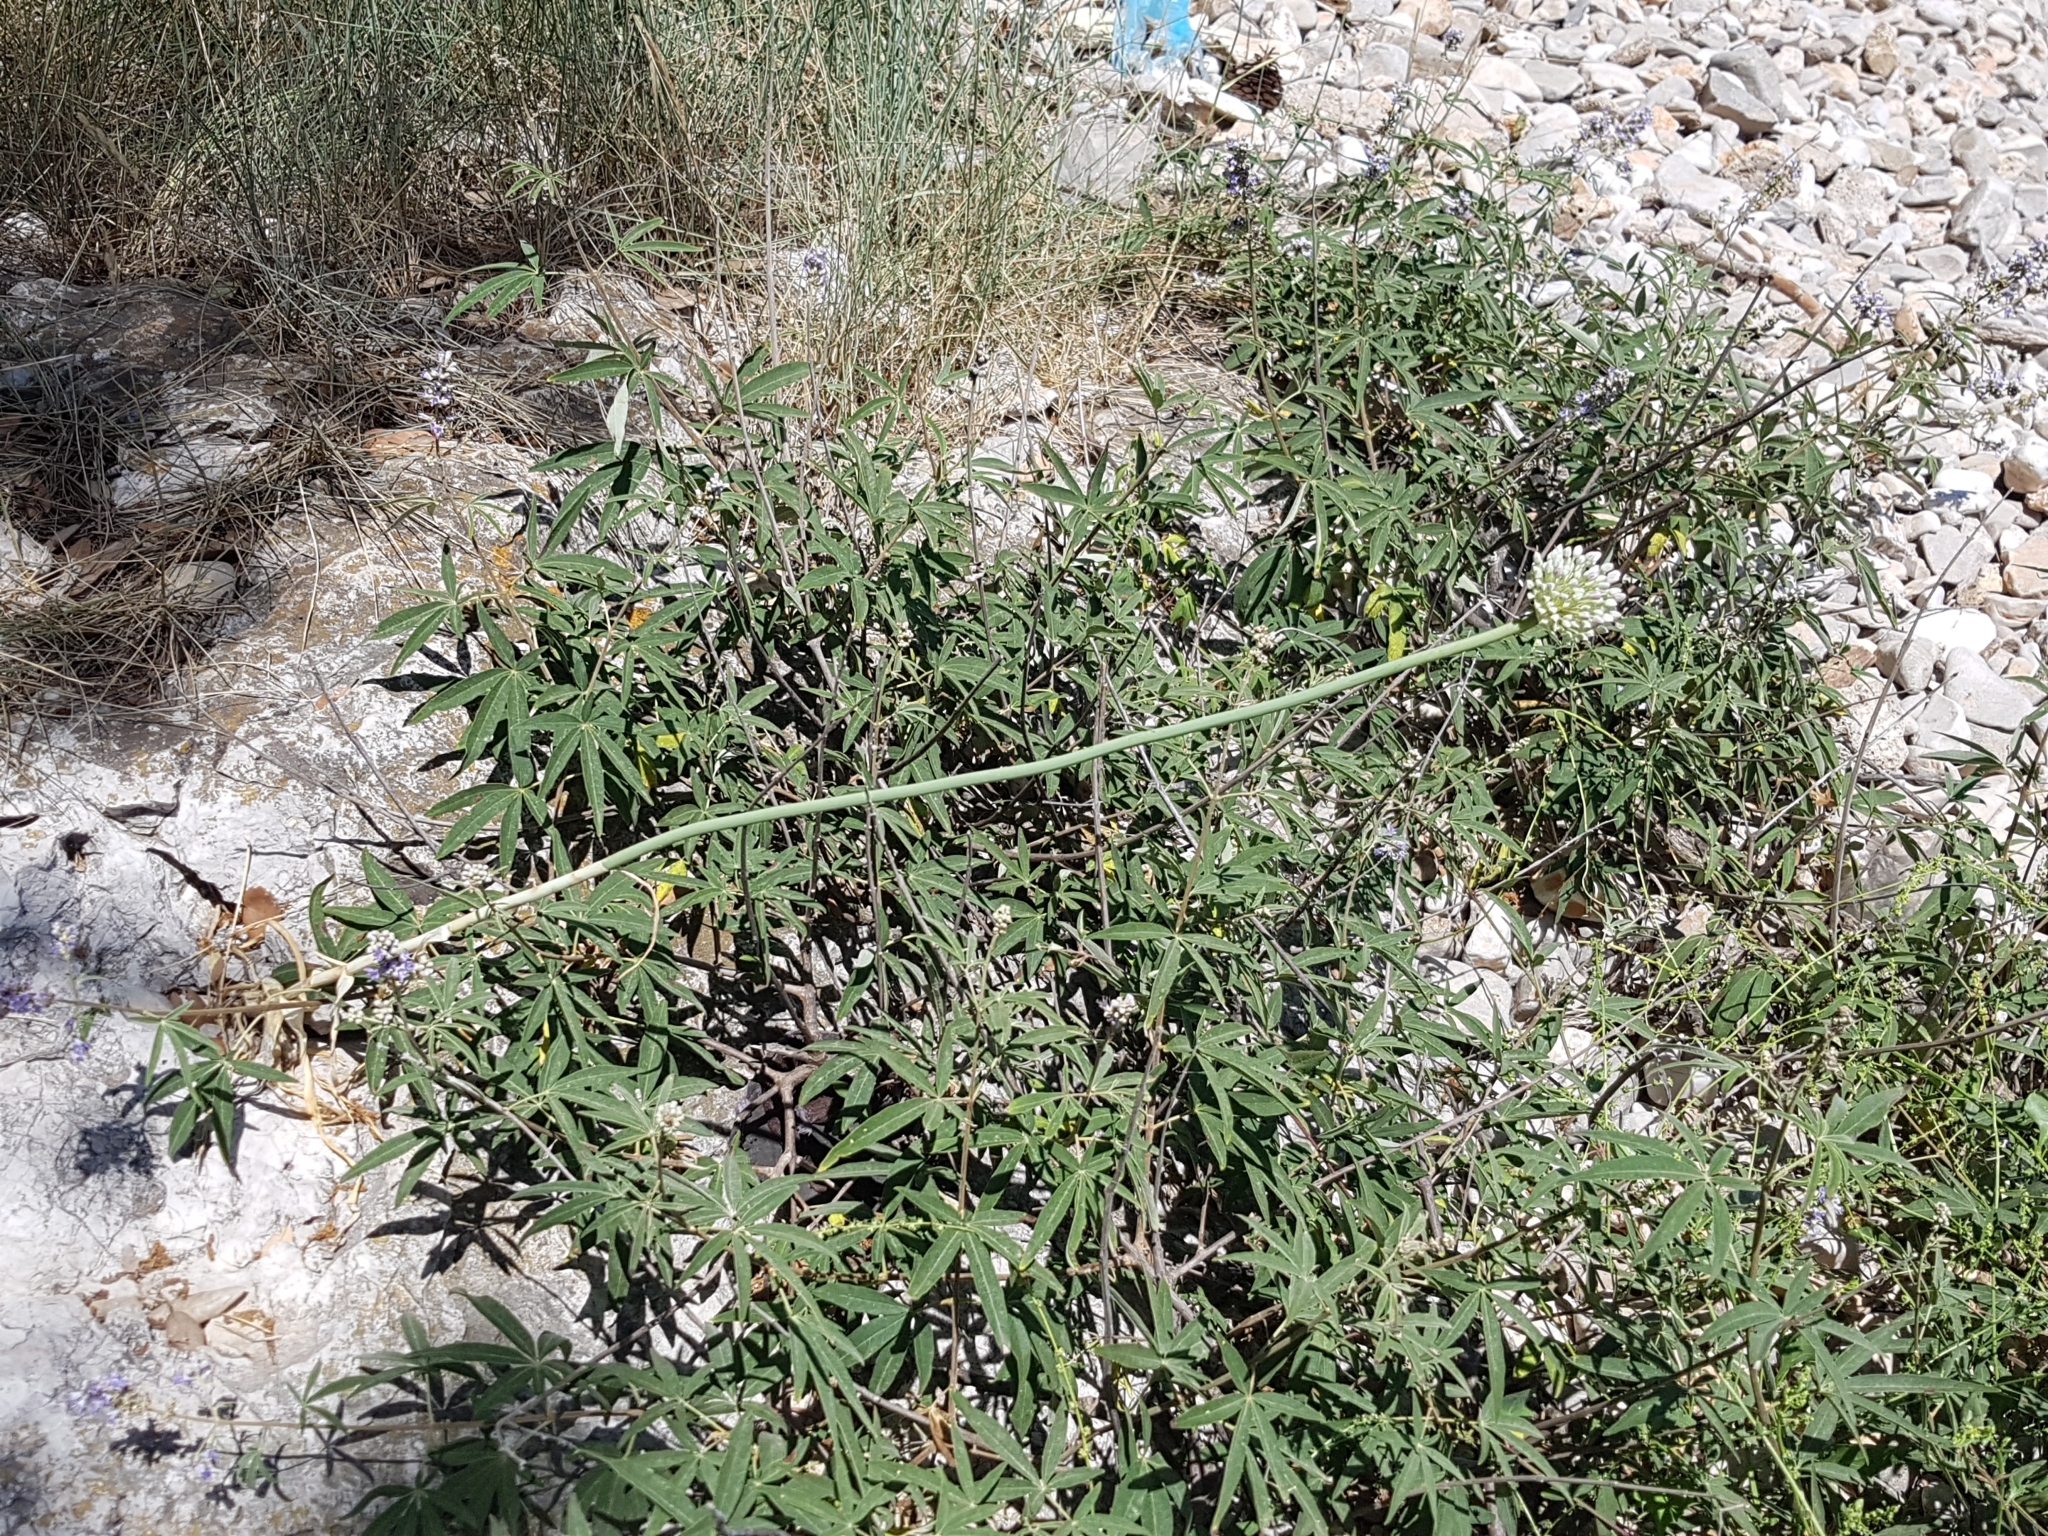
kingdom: Plantae
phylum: Tracheophyta
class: Liliopsida
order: Asparagales
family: Amaryllidaceae
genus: Allium
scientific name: Allium commutatum
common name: Sea garlic
